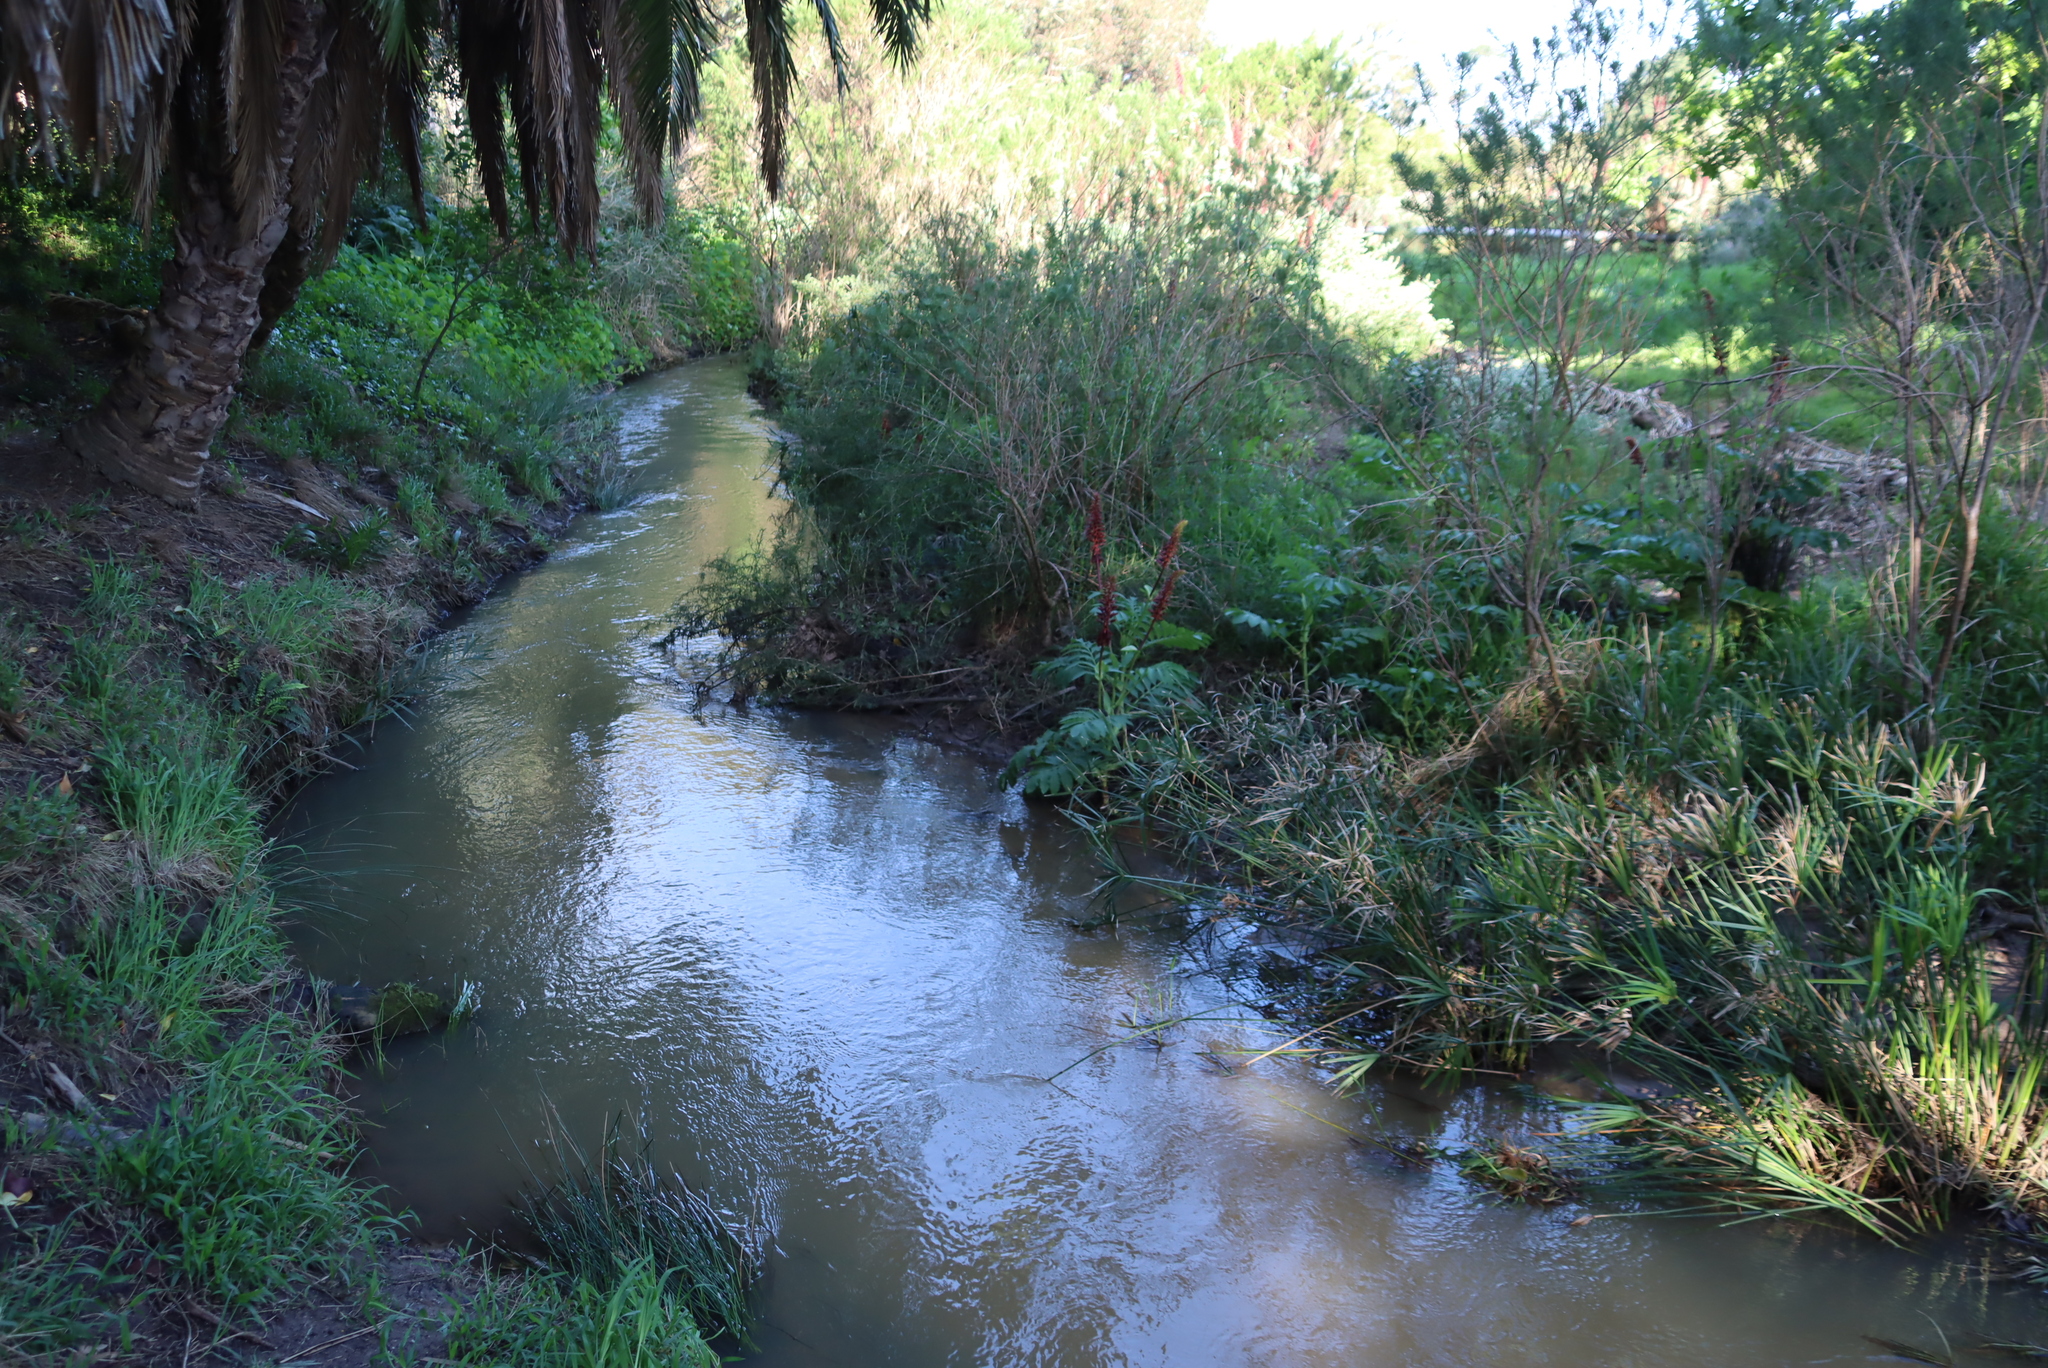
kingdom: Plantae
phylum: Tracheophyta
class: Magnoliopsida
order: Geraniales
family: Melianthaceae
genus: Melianthus
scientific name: Melianthus major
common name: Honey-flower
